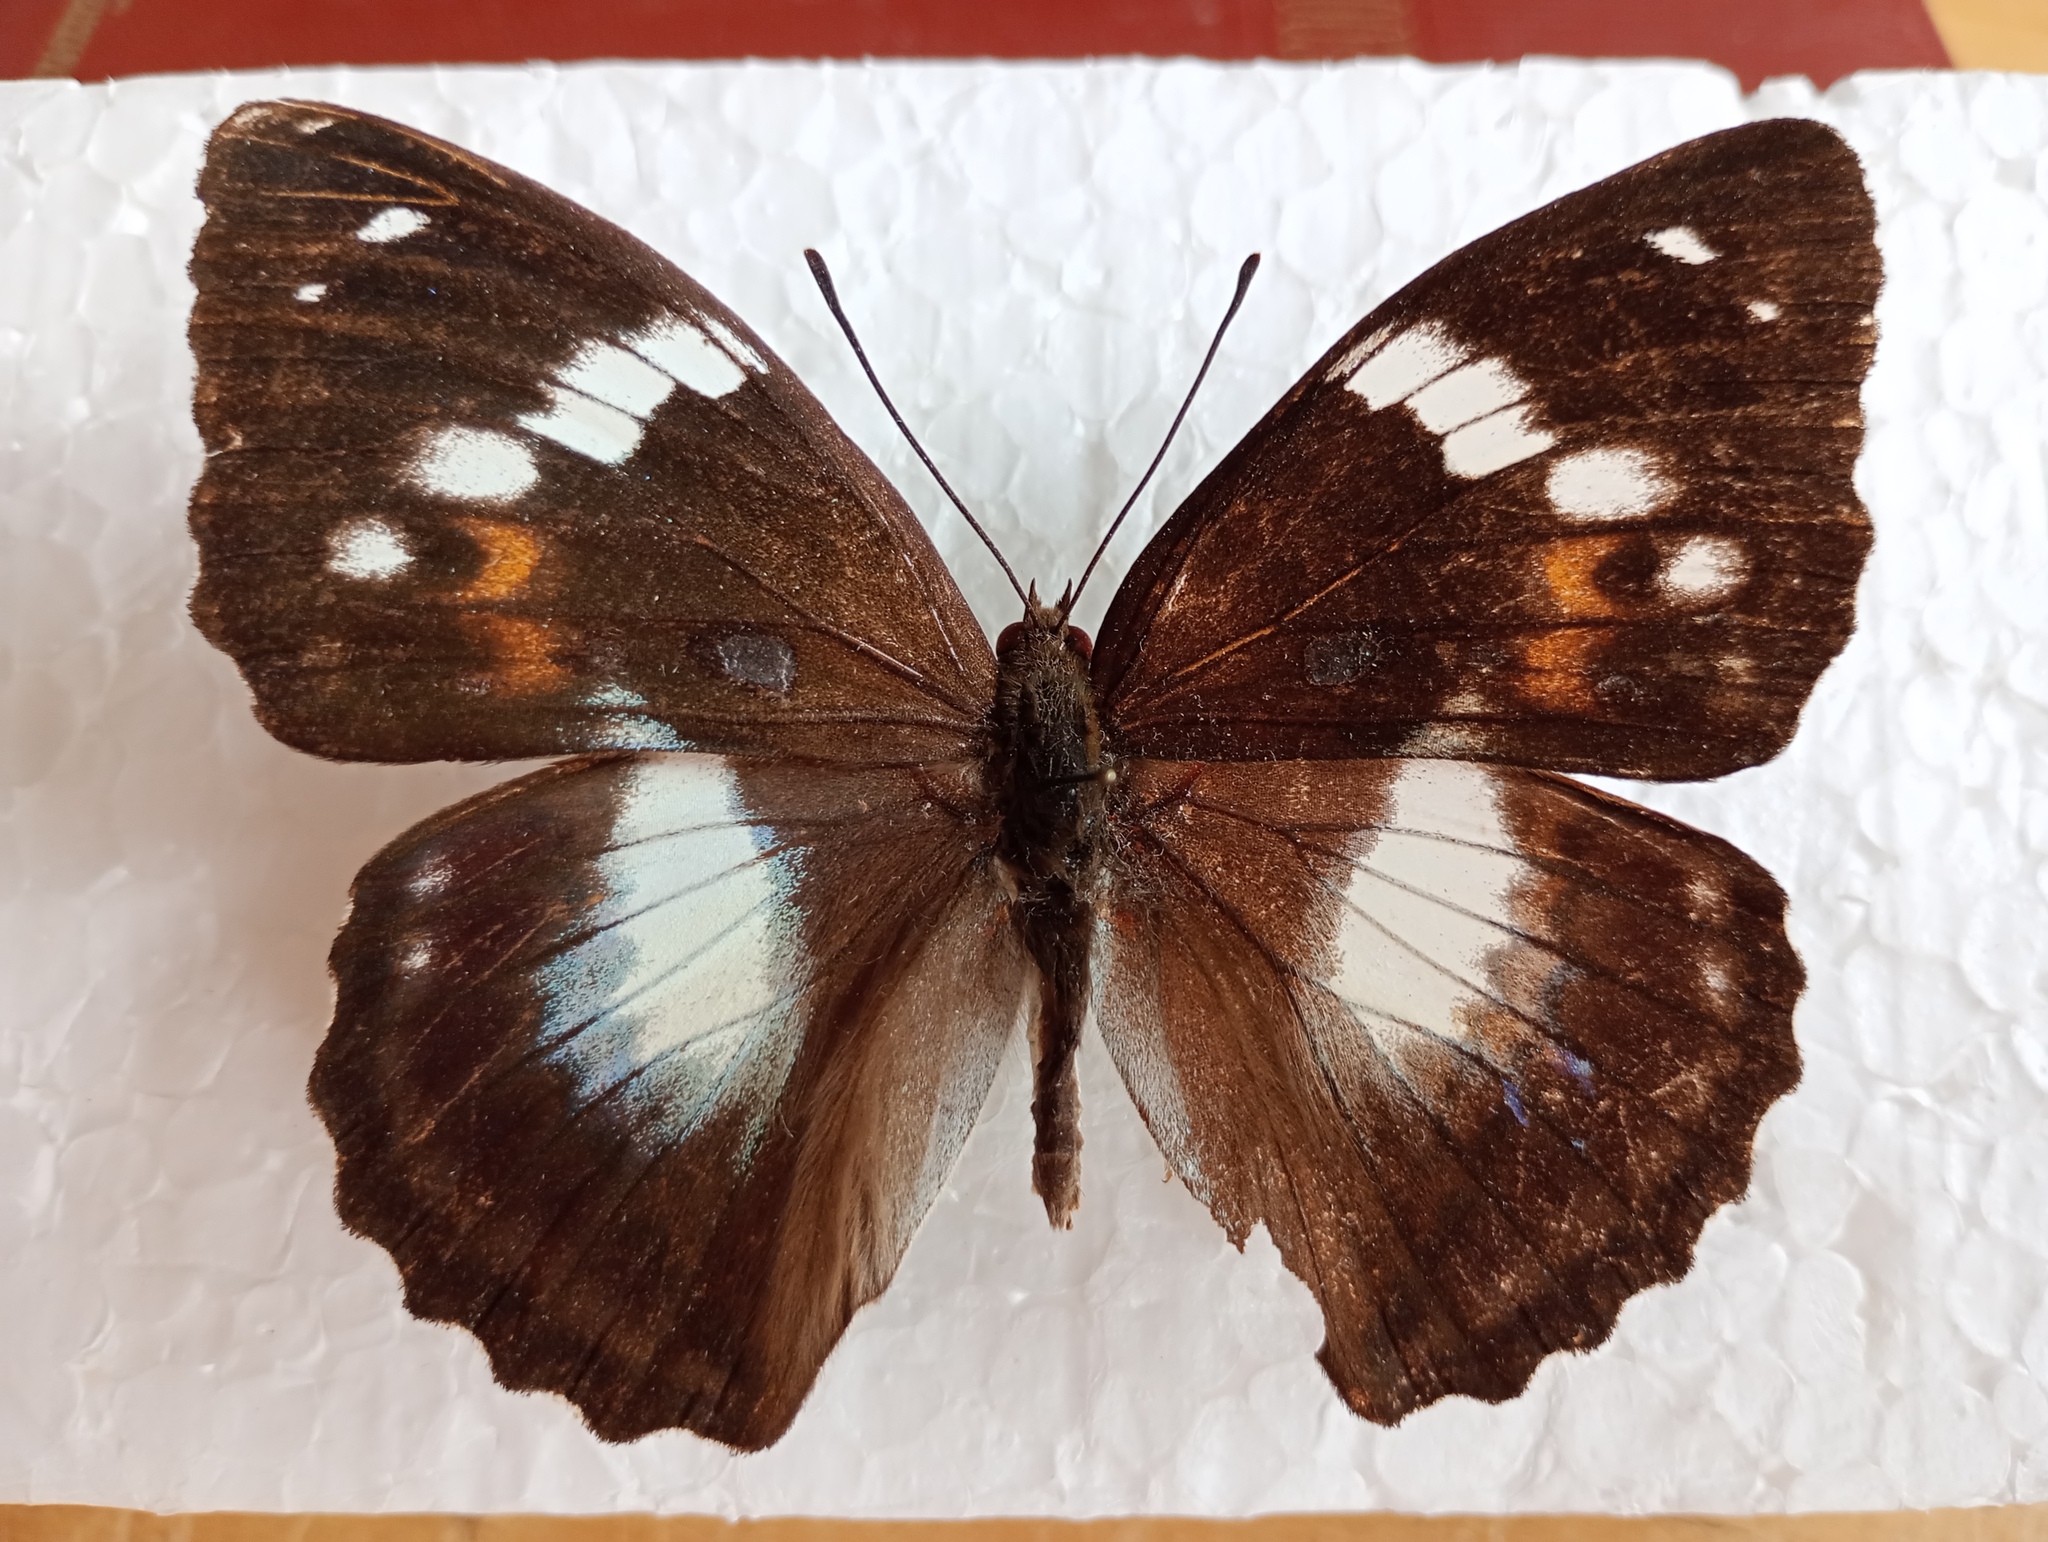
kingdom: Animalia
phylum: Arthropoda
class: Insecta
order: Lepidoptera
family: Nymphalidae
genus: Apatura
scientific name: Apatura Mimathyma schrencki
